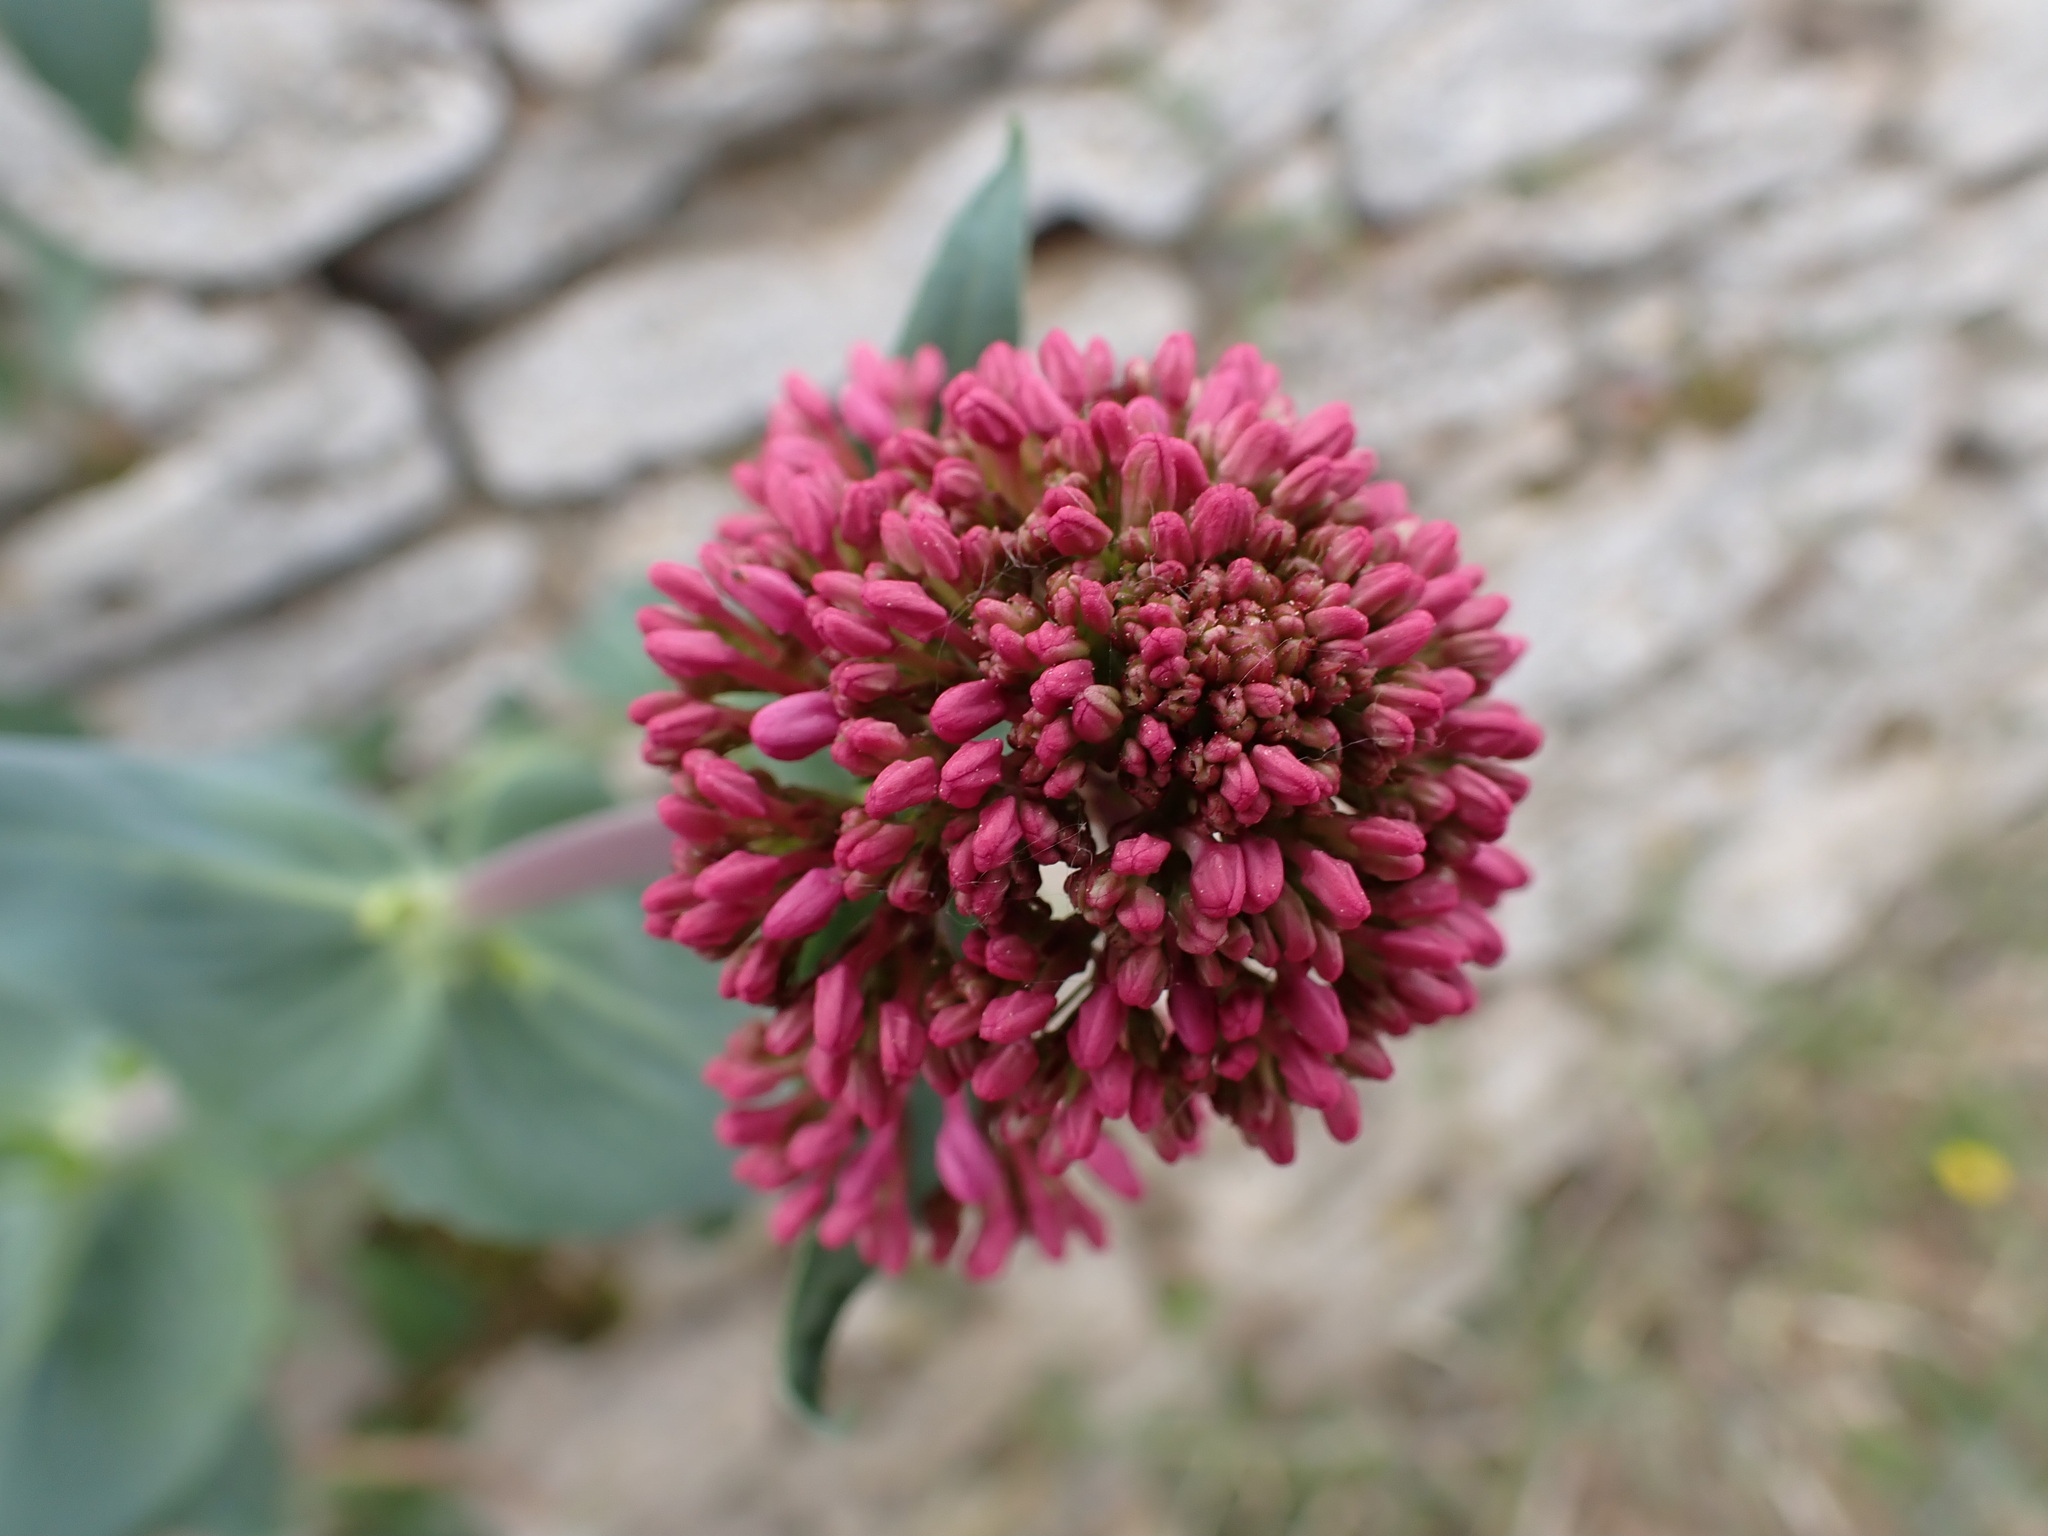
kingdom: Plantae
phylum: Tracheophyta
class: Magnoliopsida
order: Dipsacales
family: Caprifoliaceae
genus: Centranthus
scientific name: Centranthus ruber
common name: Red valerian
